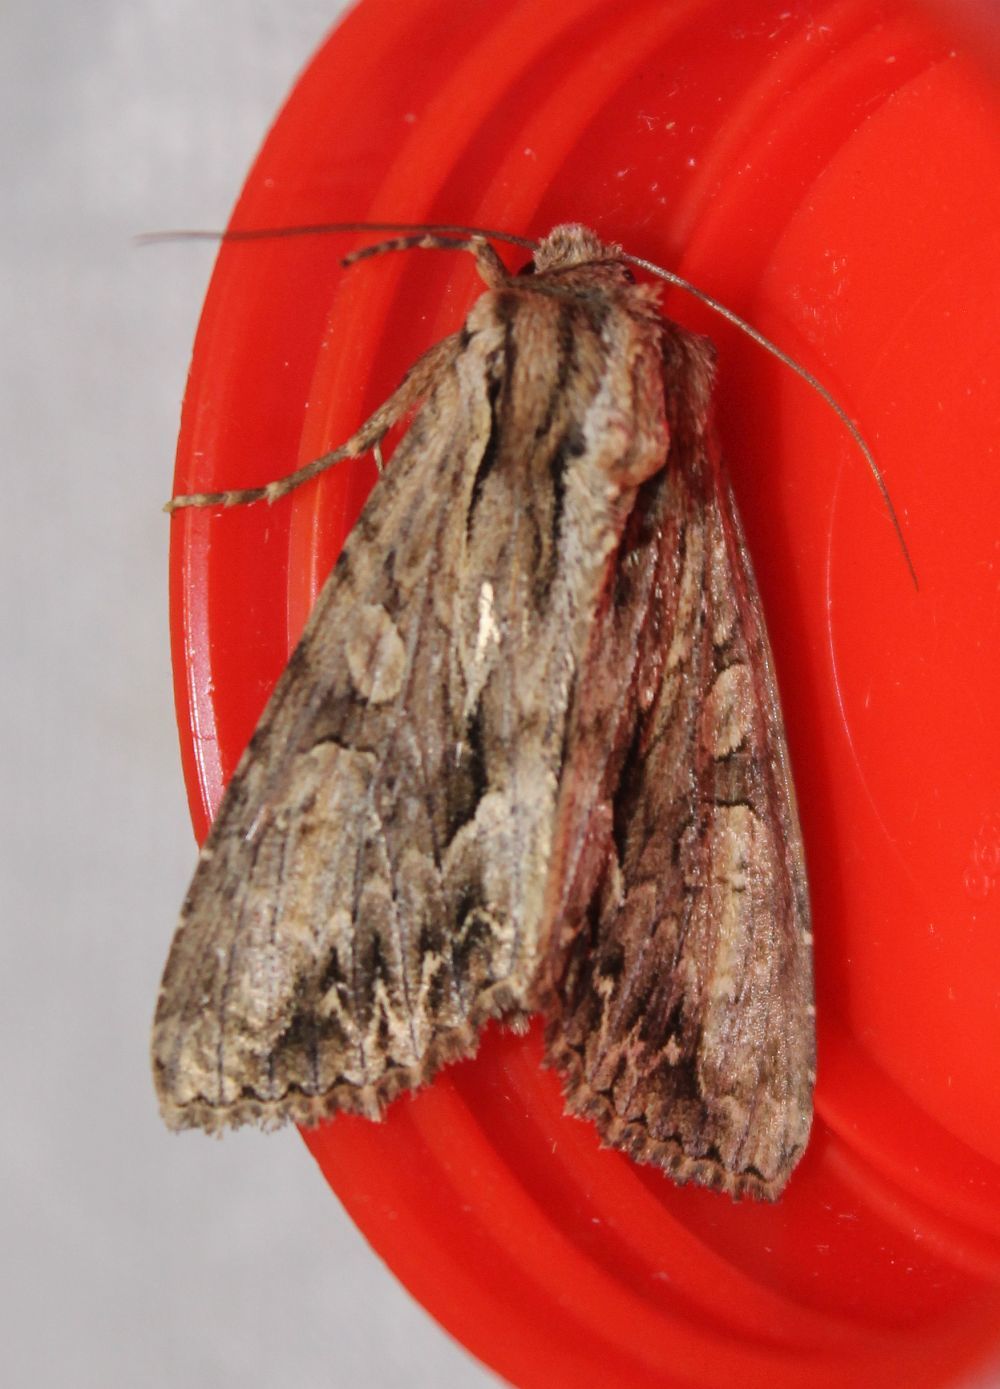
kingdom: Animalia
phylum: Arthropoda
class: Insecta
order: Lepidoptera
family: Noctuidae
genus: Apamea
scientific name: Apamea monoglypha
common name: Dark arches
